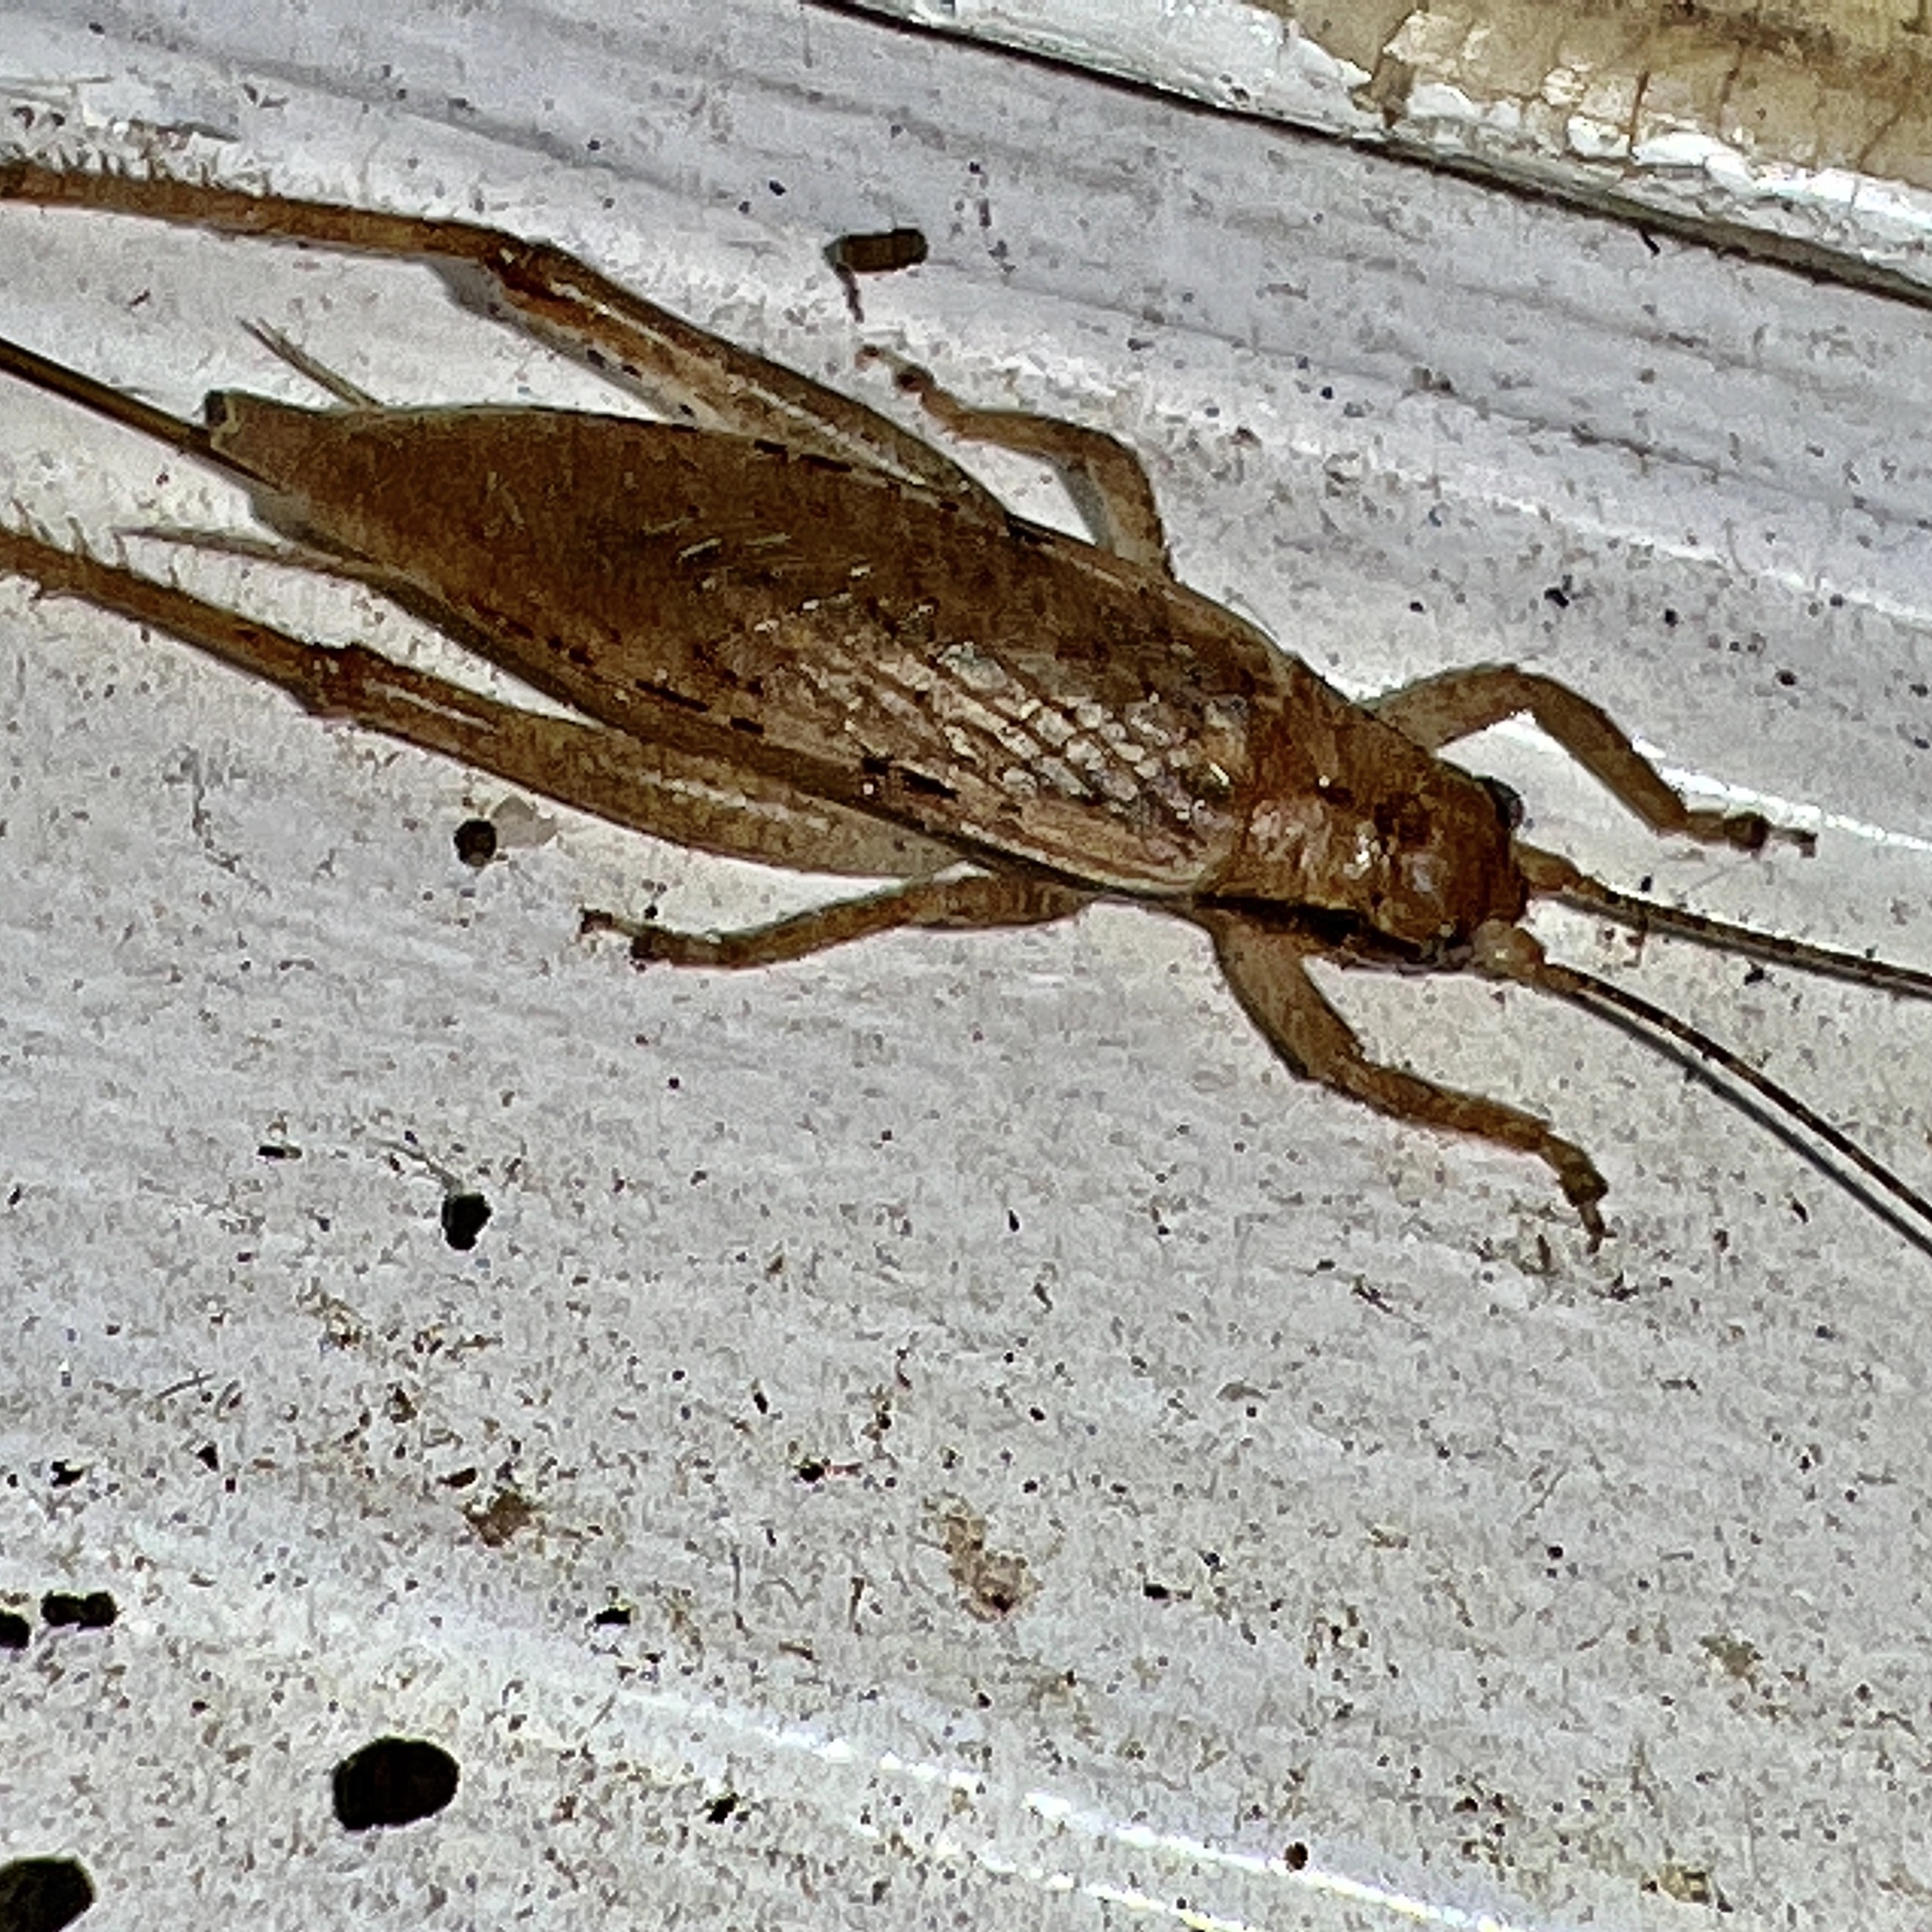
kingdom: Animalia
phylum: Arthropoda
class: Insecta
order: Orthoptera
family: Gryllidae
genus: Hapithus
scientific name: Hapithus saltator
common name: Jumping bush cricket
